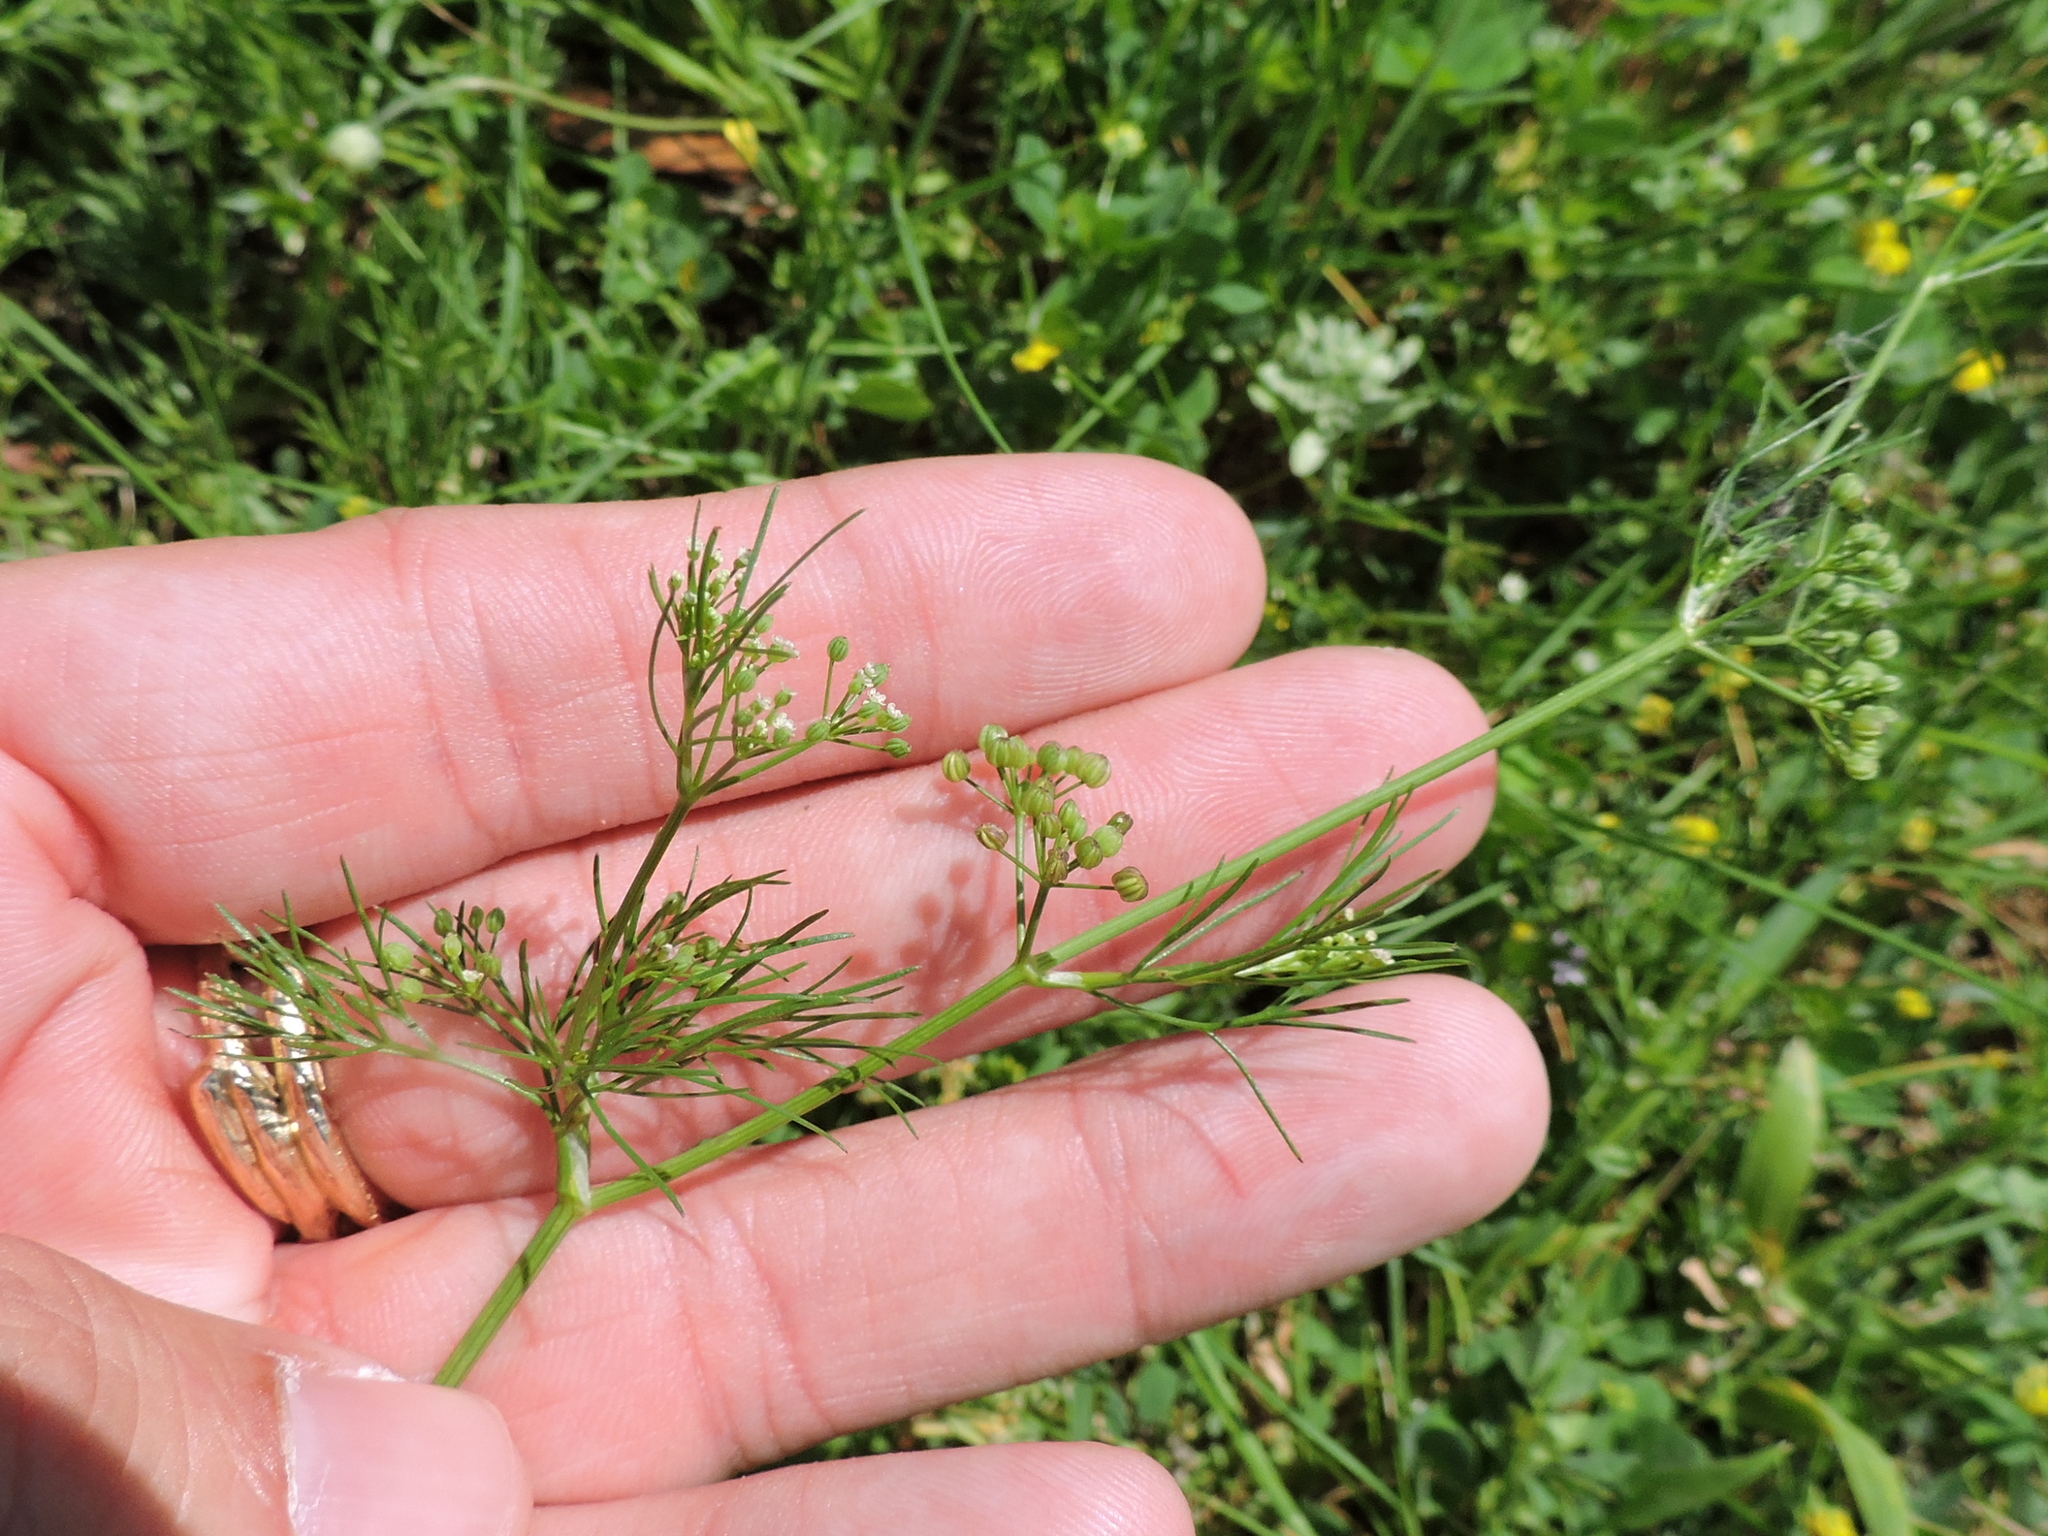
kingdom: Plantae
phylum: Tracheophyta
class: Magnoliopsida
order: Apiales
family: Apiaceae
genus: Cyclospermum
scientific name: Cyclospermum leptophyllum
